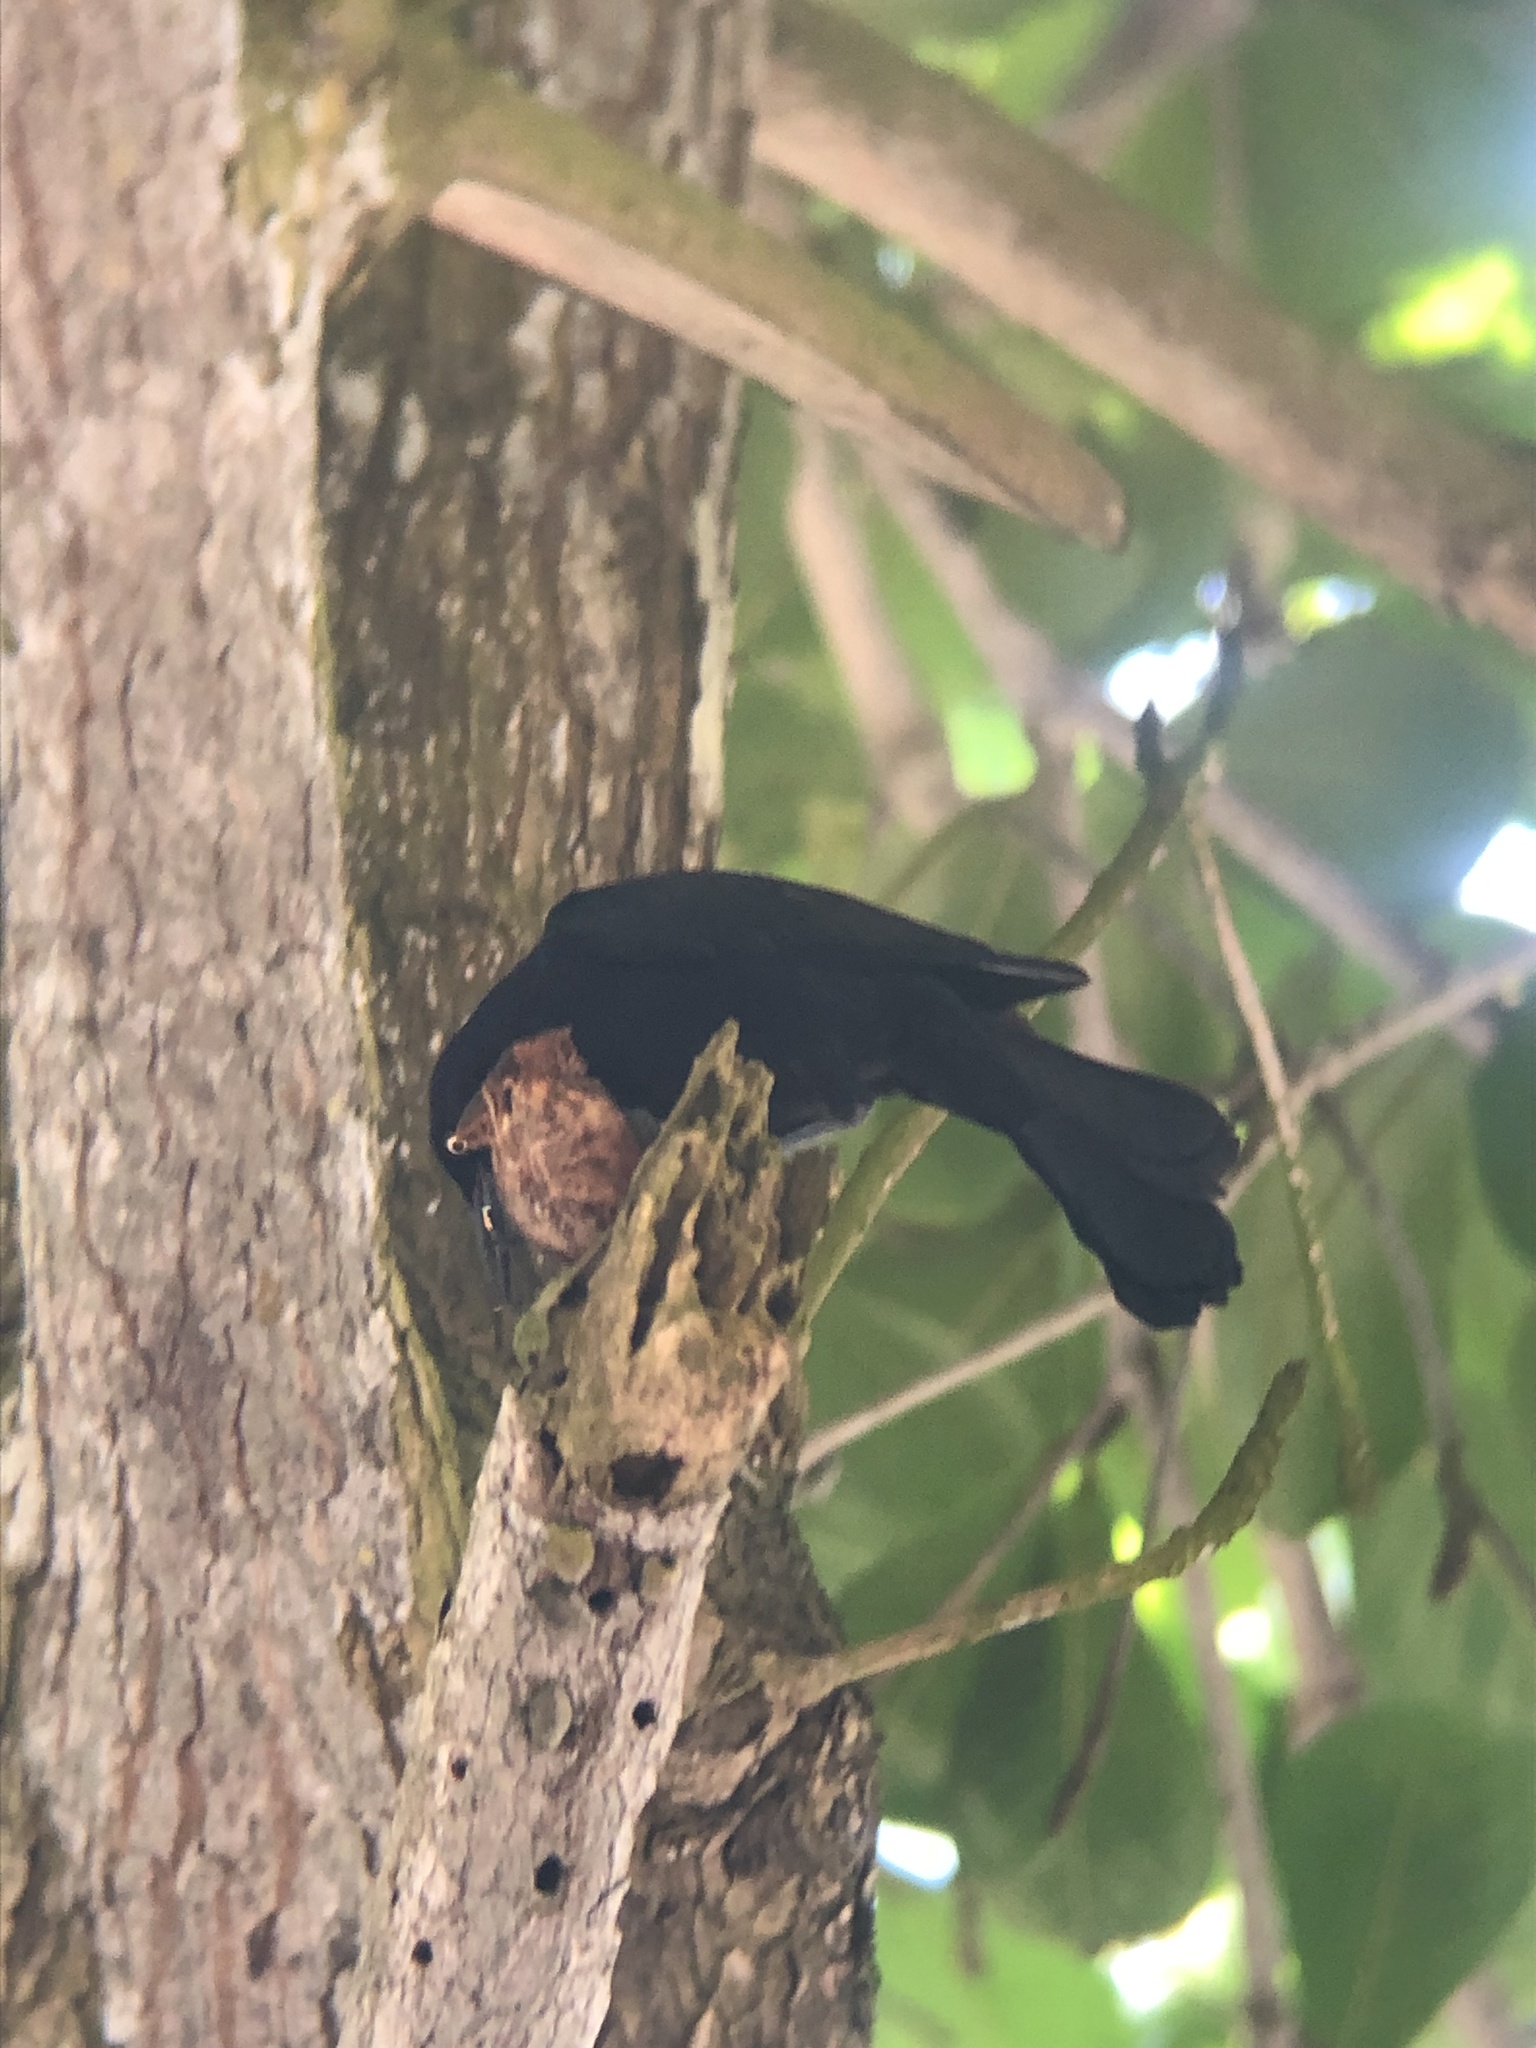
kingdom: Animalia
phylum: Chordata
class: Aves
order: Passeriformes
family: Icteridae
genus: Quiscalus
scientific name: Quiscalus niger
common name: Greater antillean grackle
